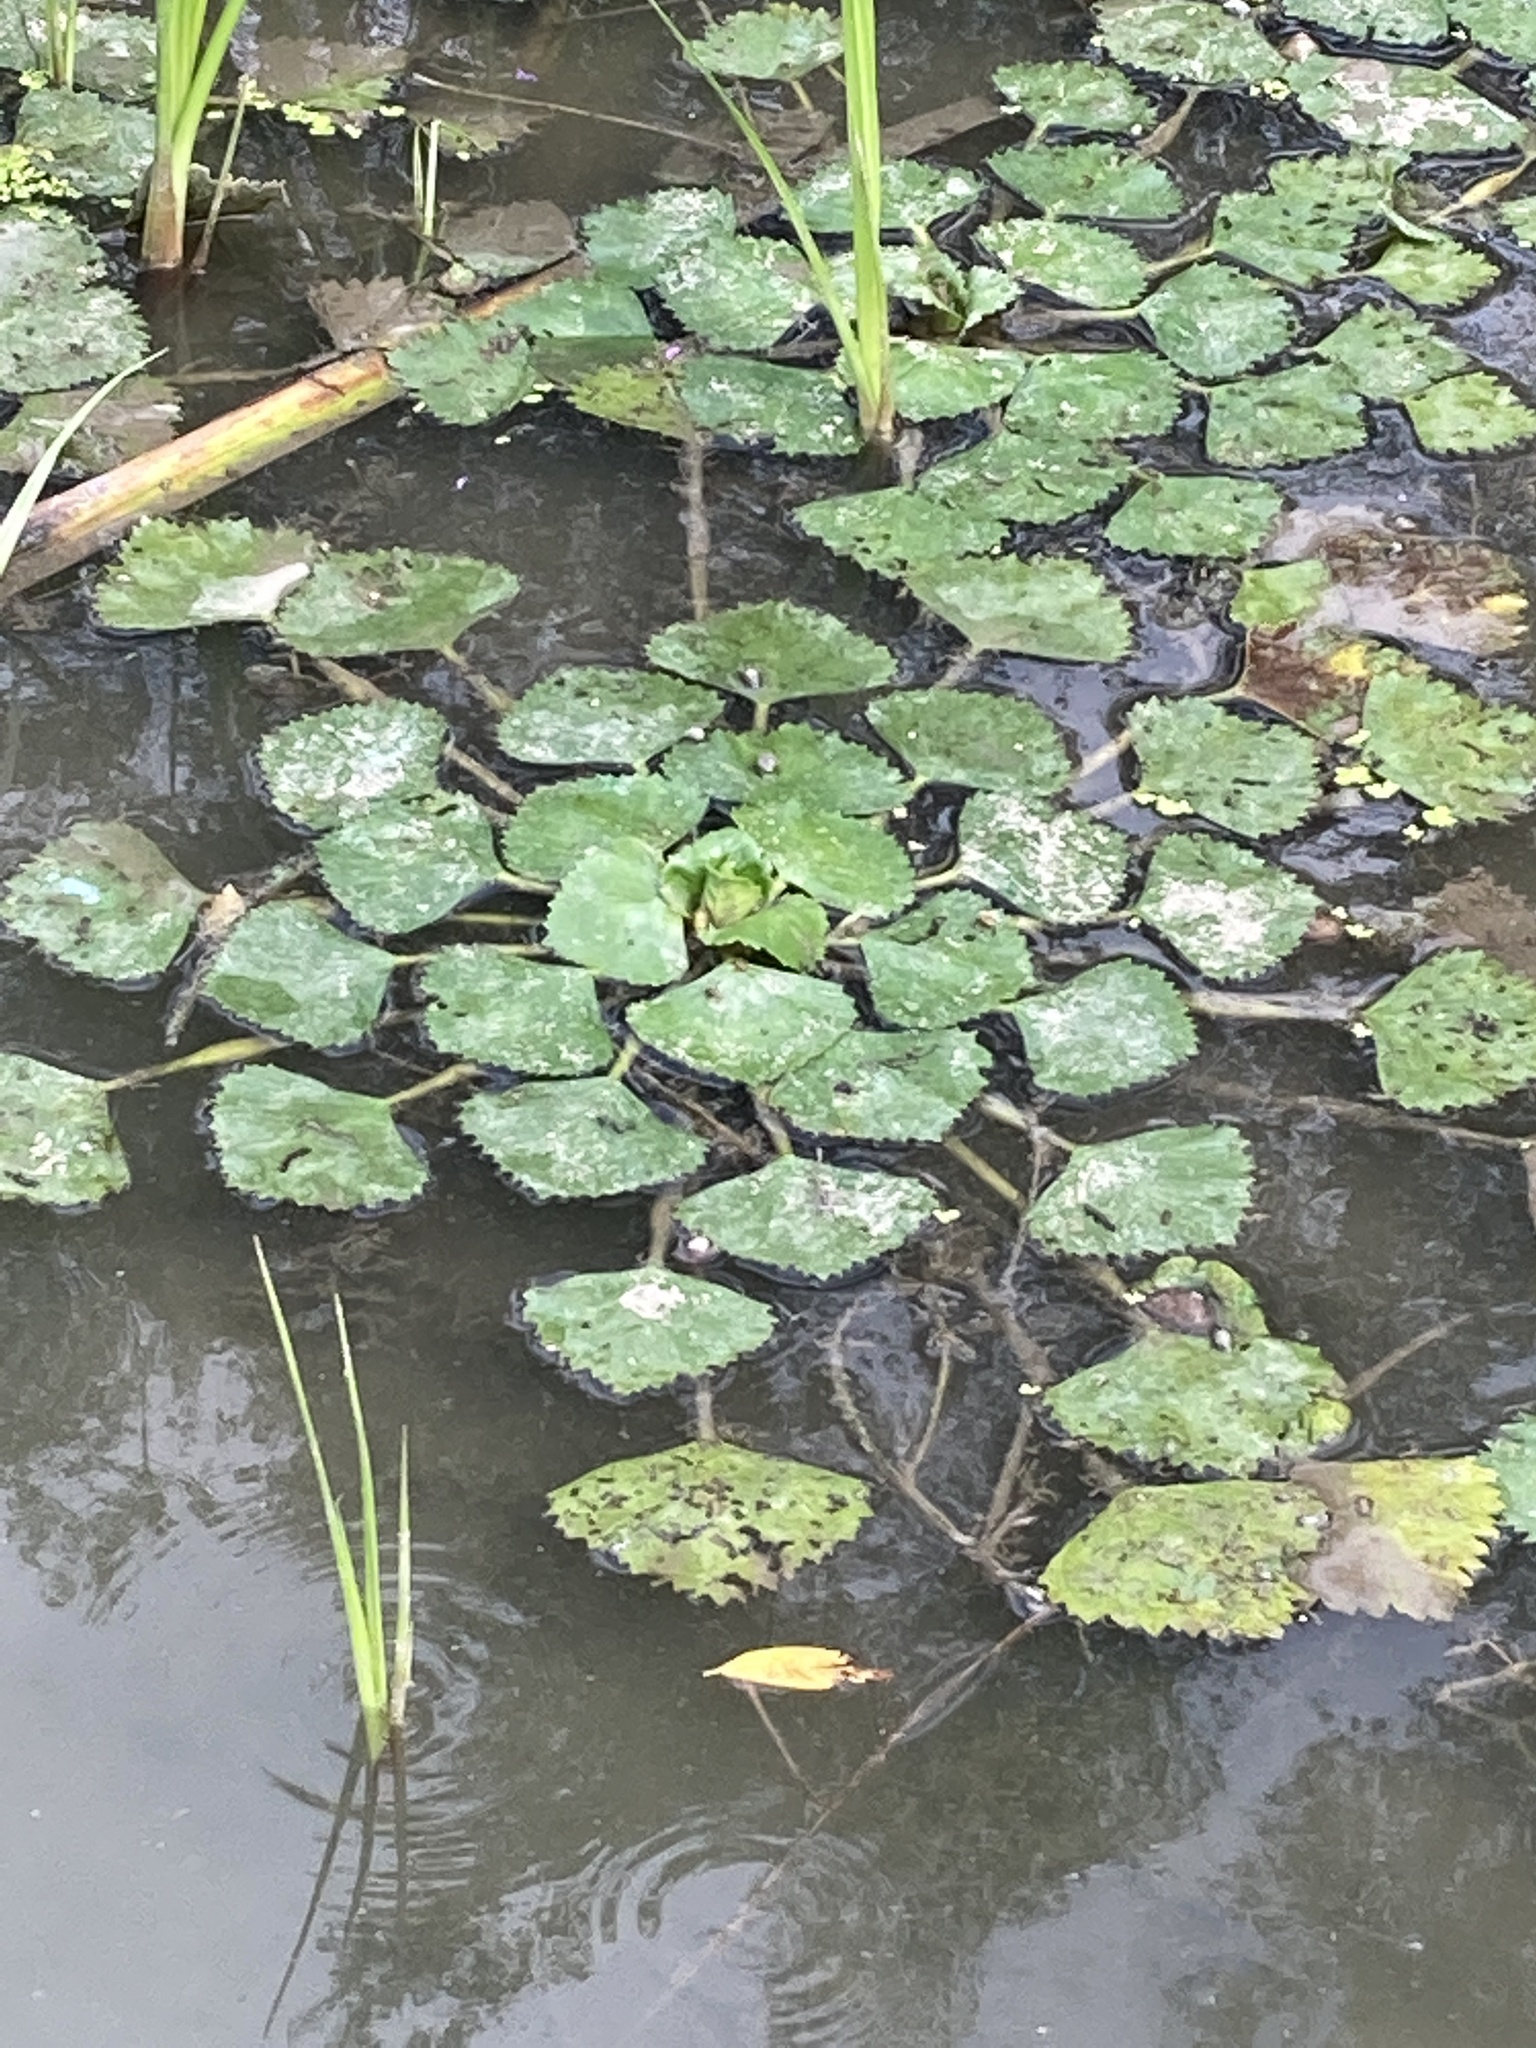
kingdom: Plantae
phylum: Tracheophyta
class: Magnoliopsida
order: Myrtales
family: Lythraceae
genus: Trapa
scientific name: Trapa natans
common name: Water chestnut
